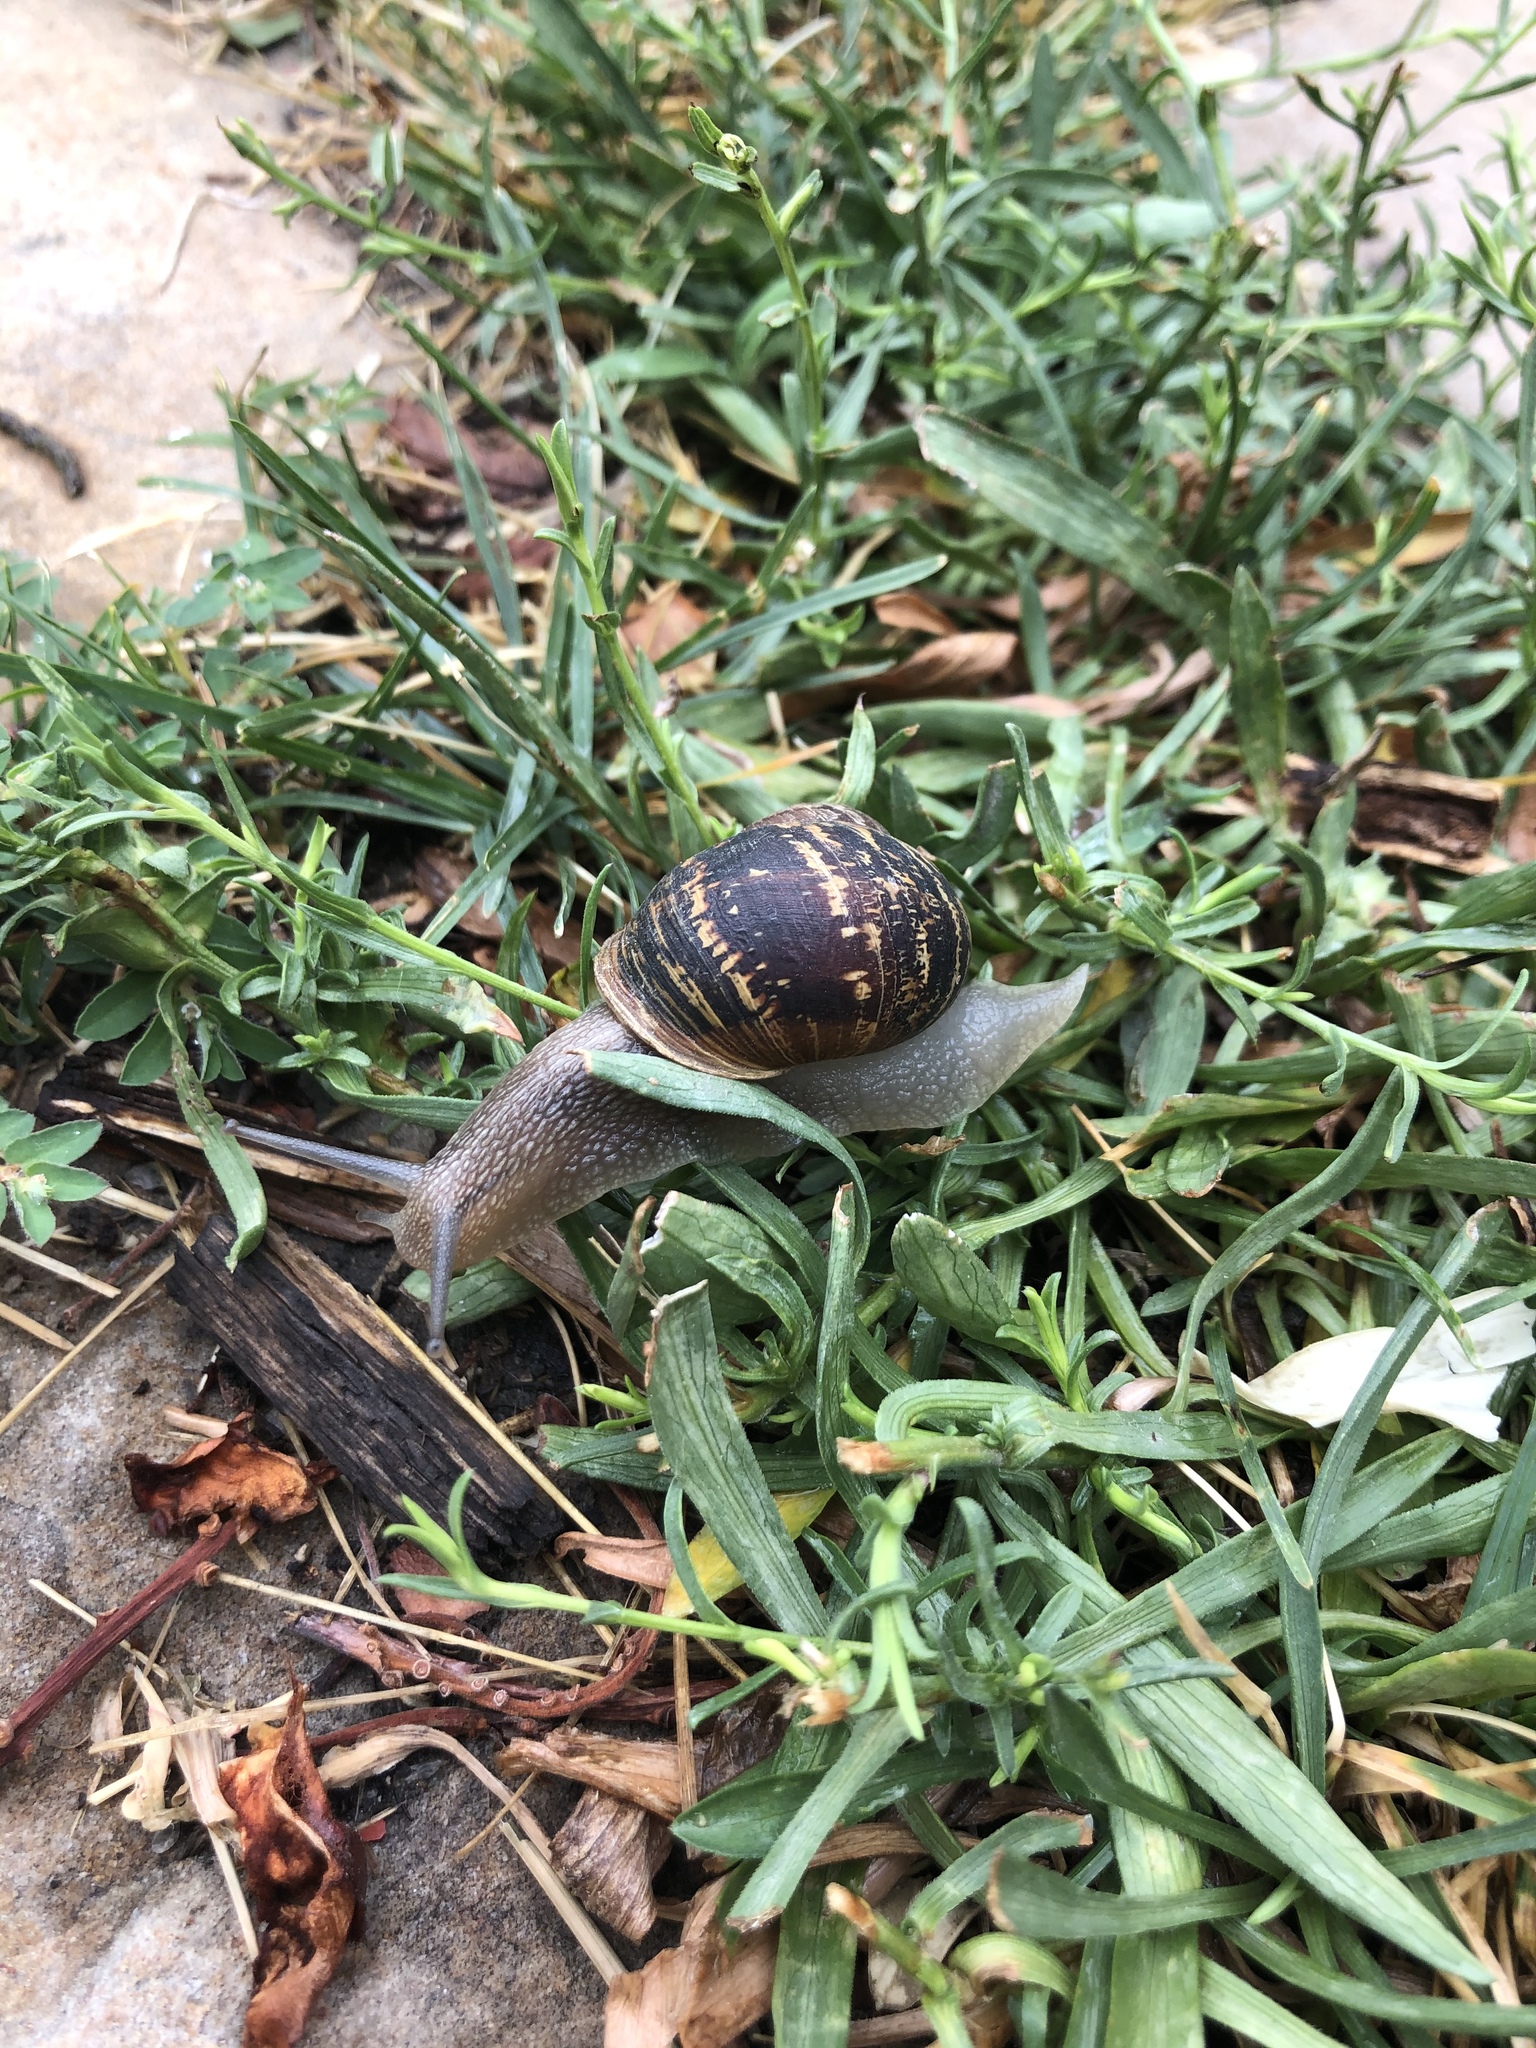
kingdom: Animalia
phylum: Mollusca
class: Gastropoda
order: Stylommatophora
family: Helicidae
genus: Cornu
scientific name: Cornu aspersum
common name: Brown garden snail
